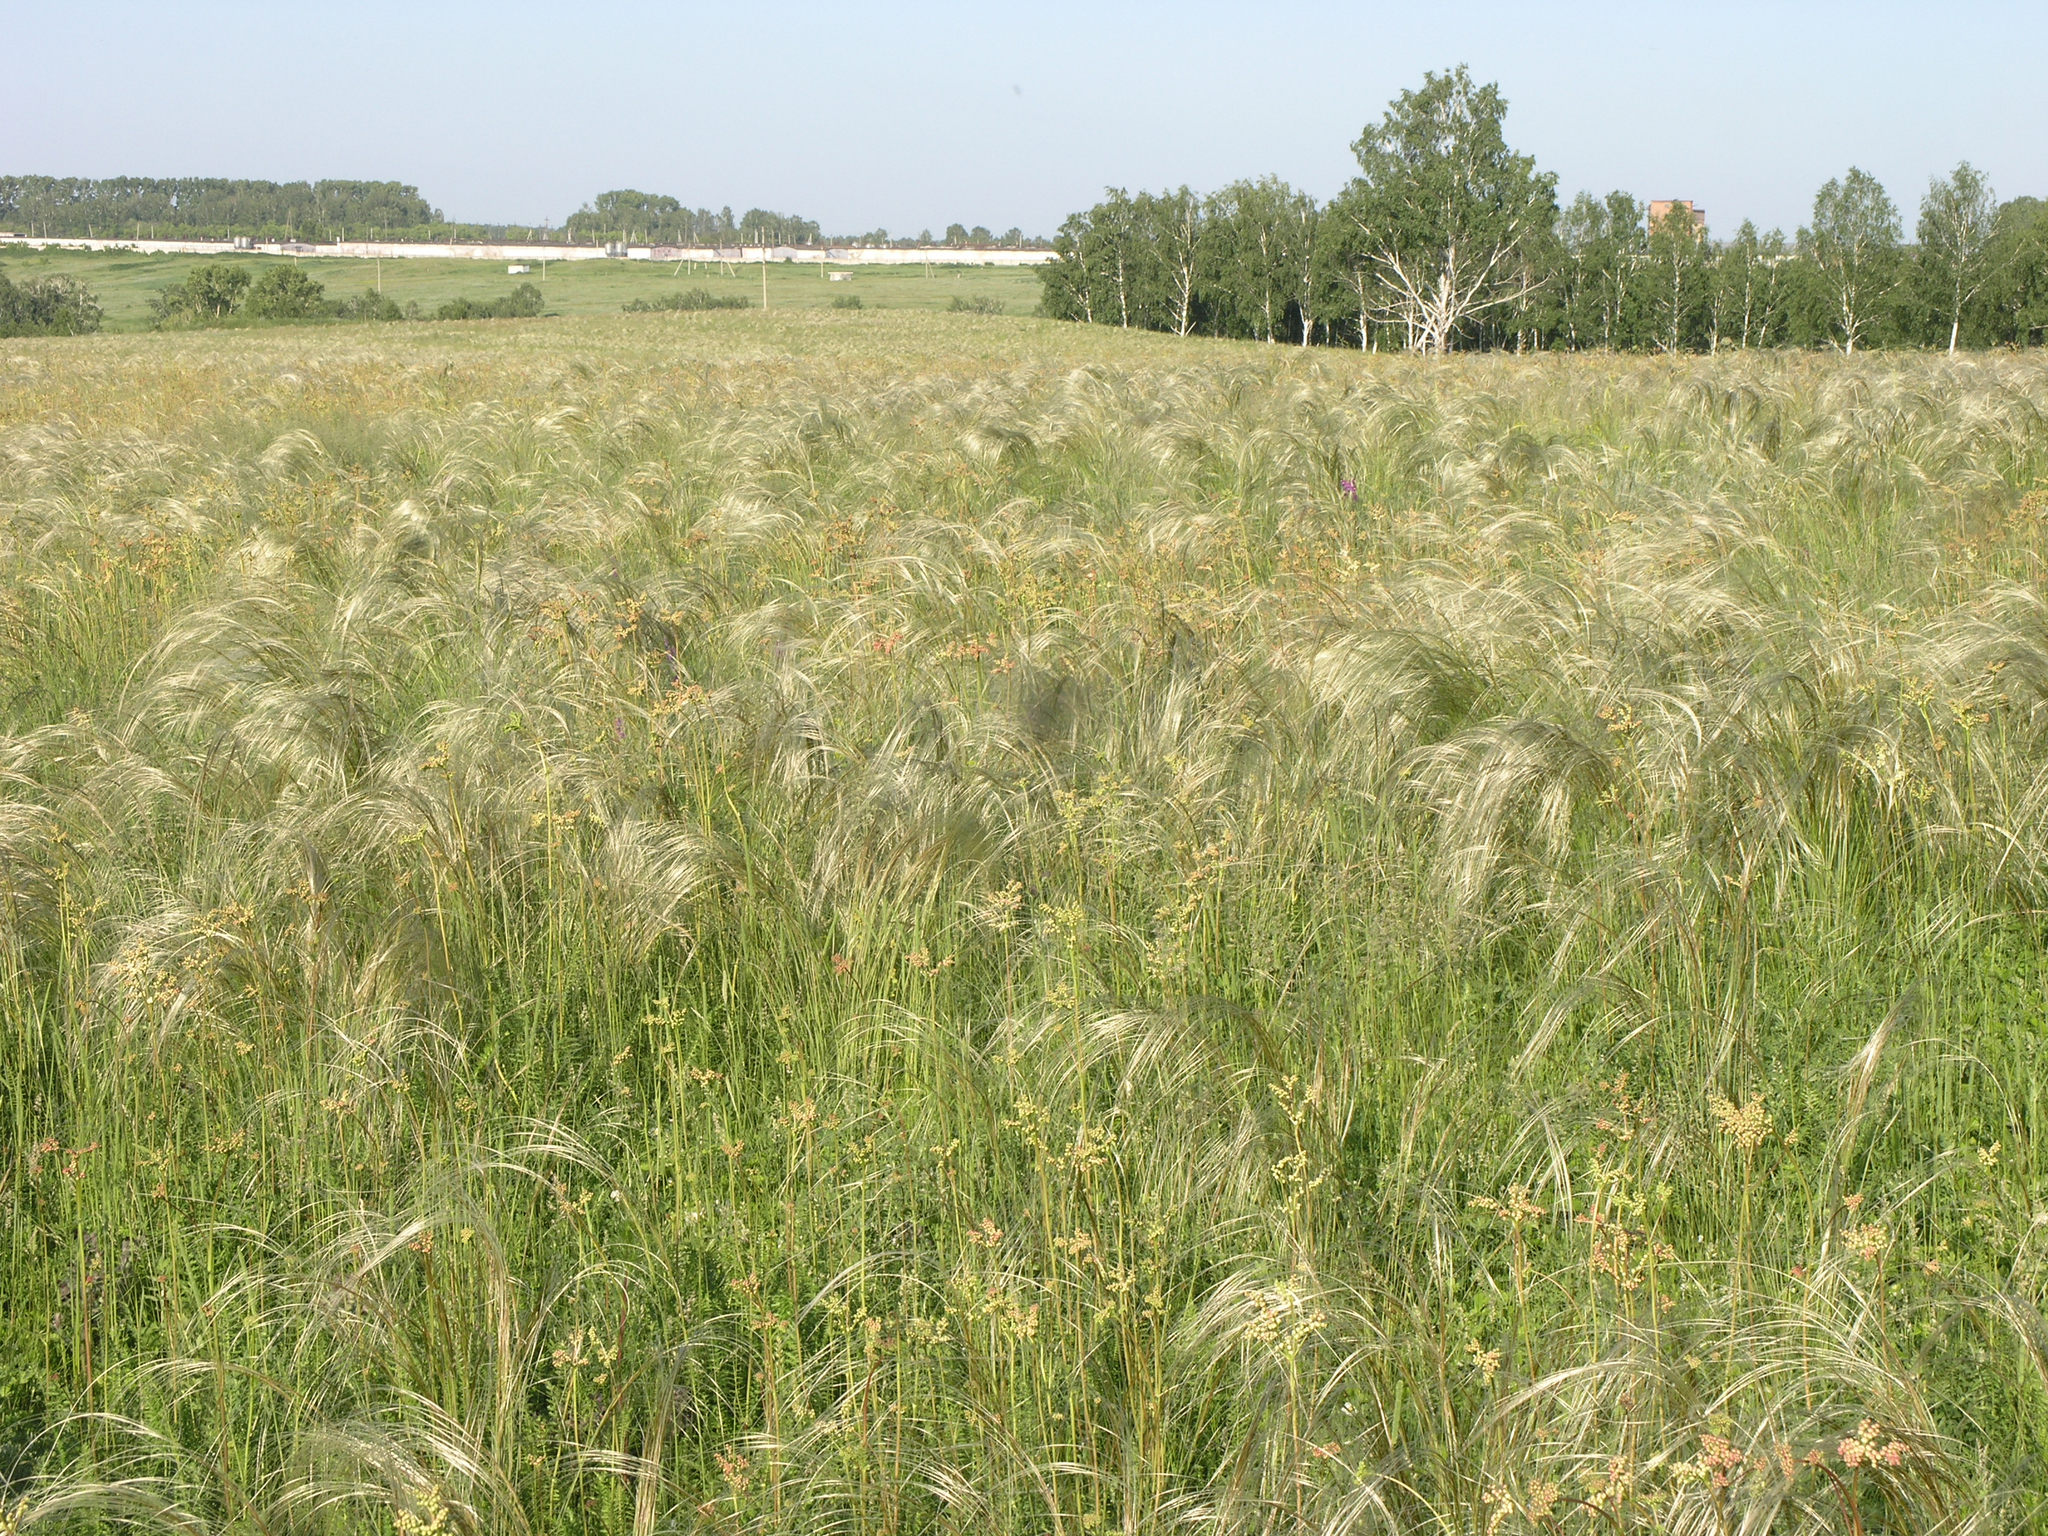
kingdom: Plantae
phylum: Tracheophyta
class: Liliopsida
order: Poales
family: Poaceae
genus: Stipa
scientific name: Stipa pennata
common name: European feather grass
